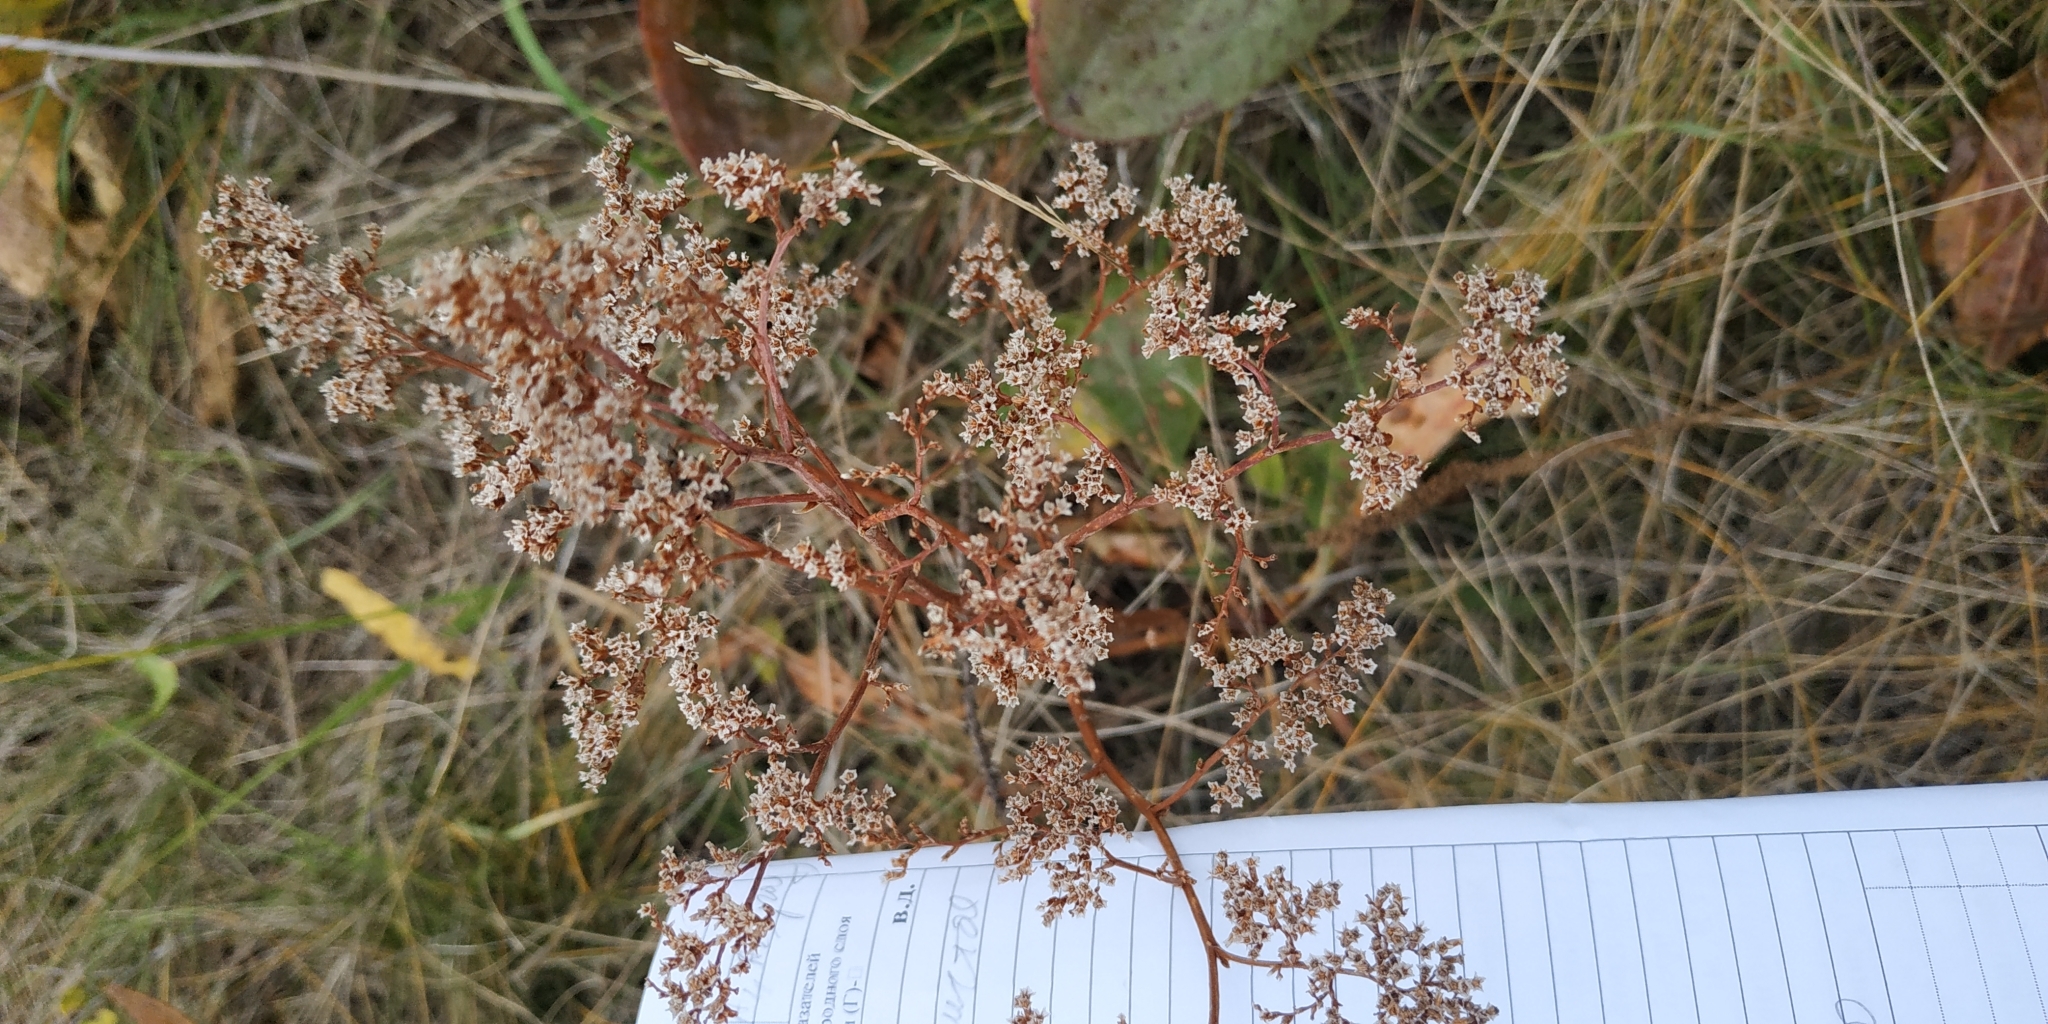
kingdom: Plantae
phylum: Tracheophyta
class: Magnoliopsida
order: Caryophyllales
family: Plumbaginaceae
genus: Limonium
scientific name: Limonium gmelini
